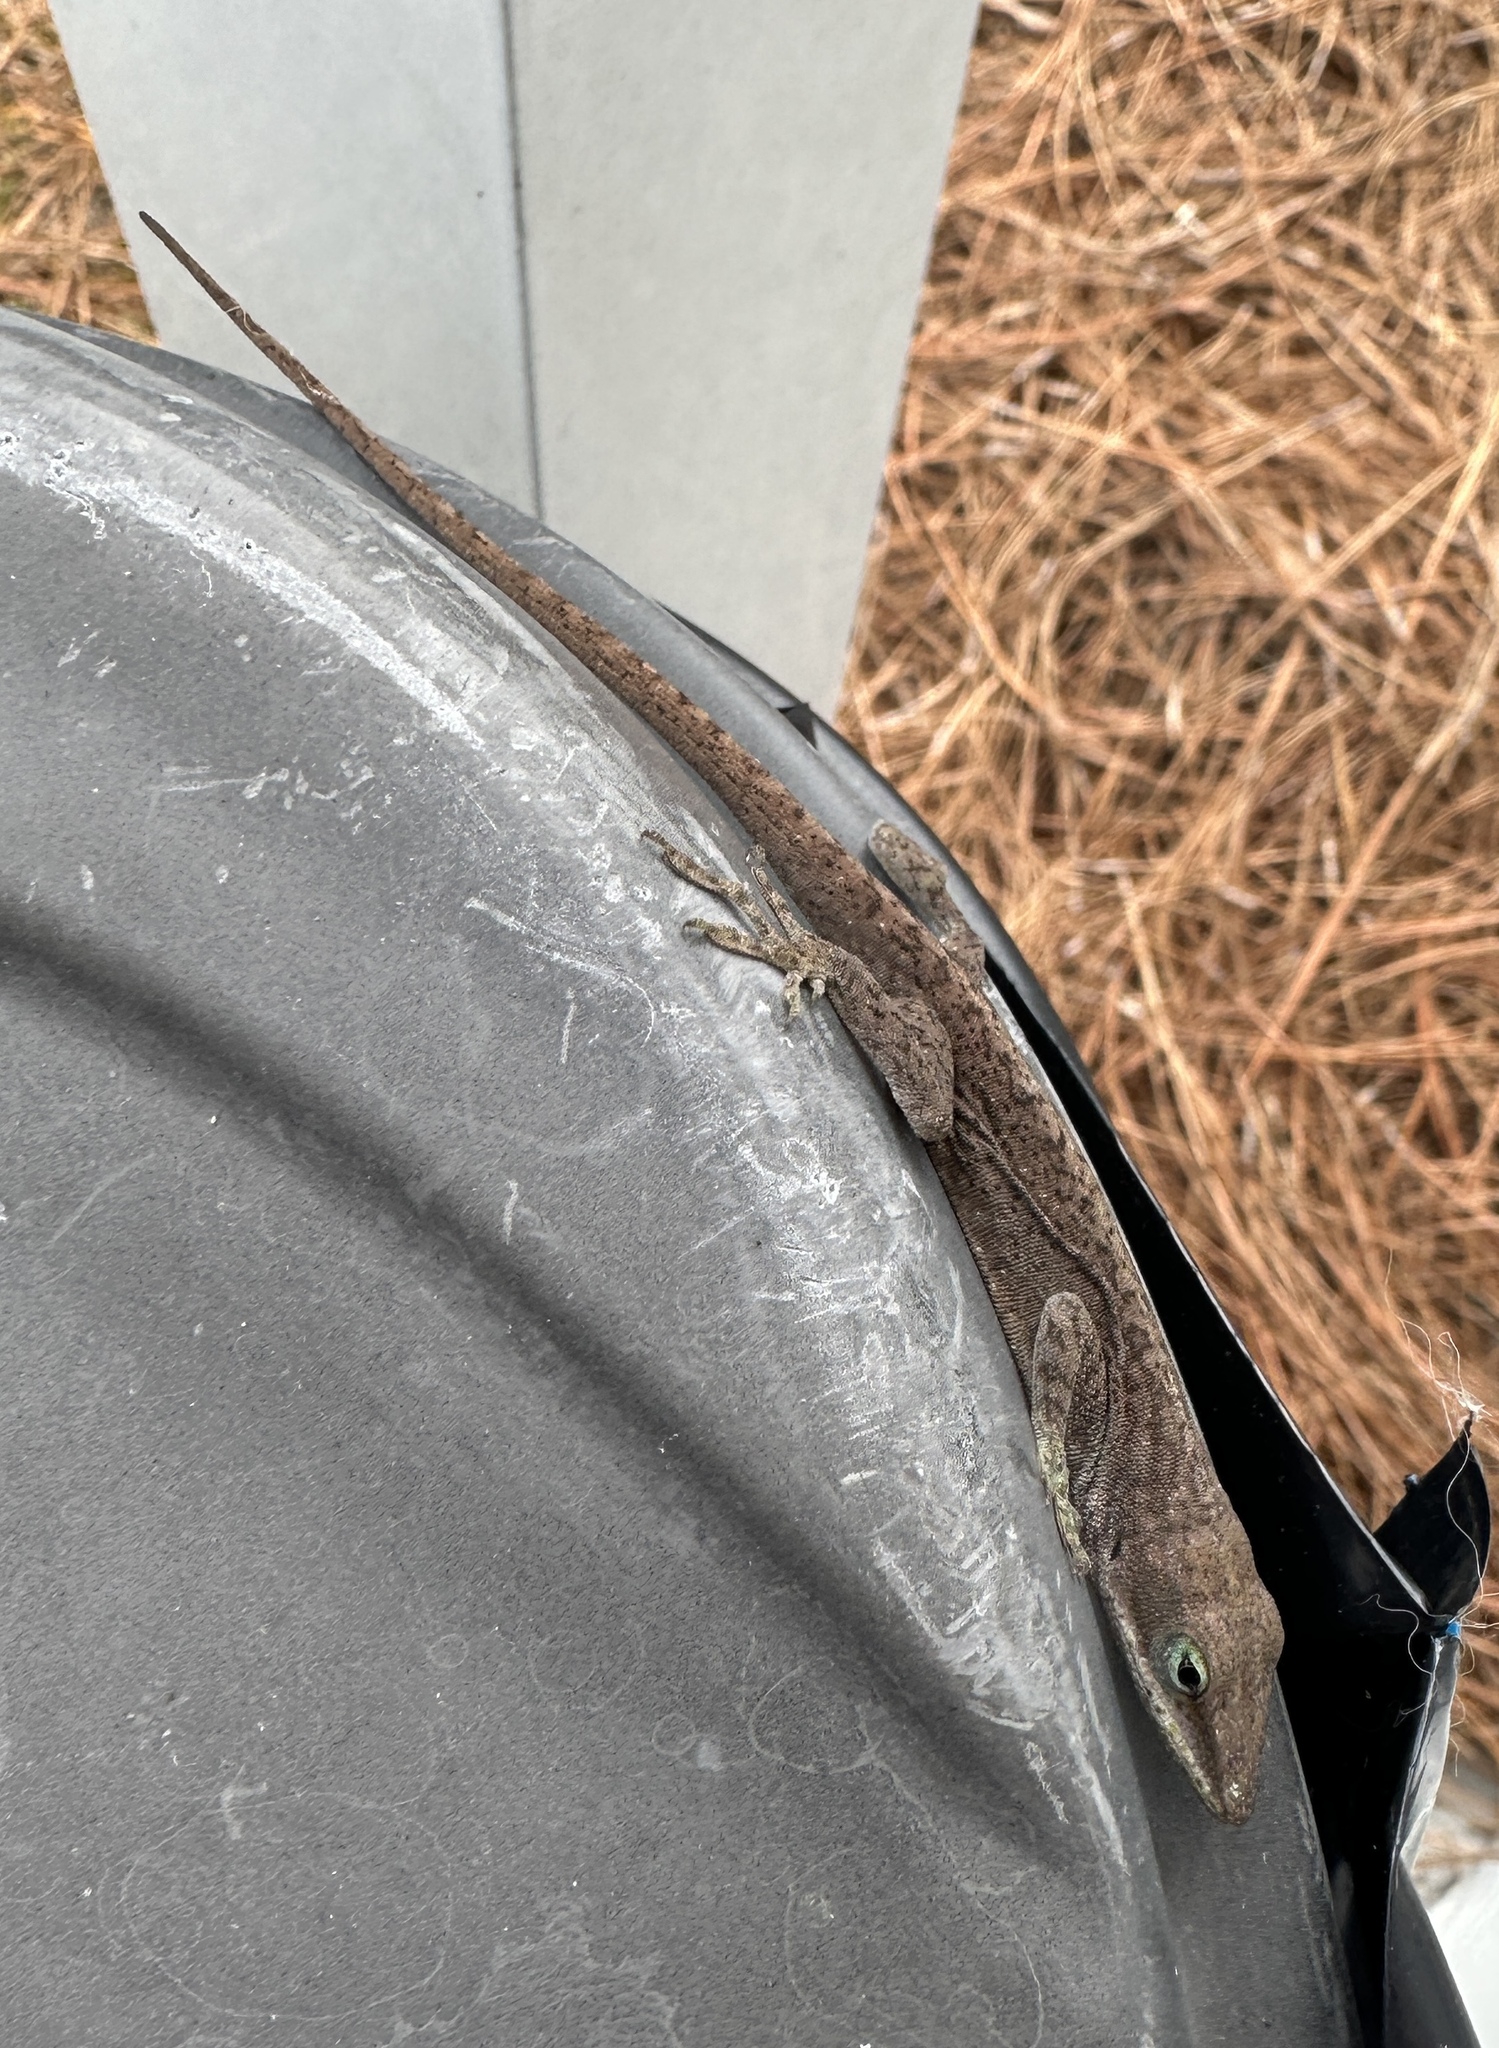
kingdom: Animalia
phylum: Chordata
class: Squamata
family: Dactyloidae
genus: Anolis
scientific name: Anolis carolinensis
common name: Green anole
